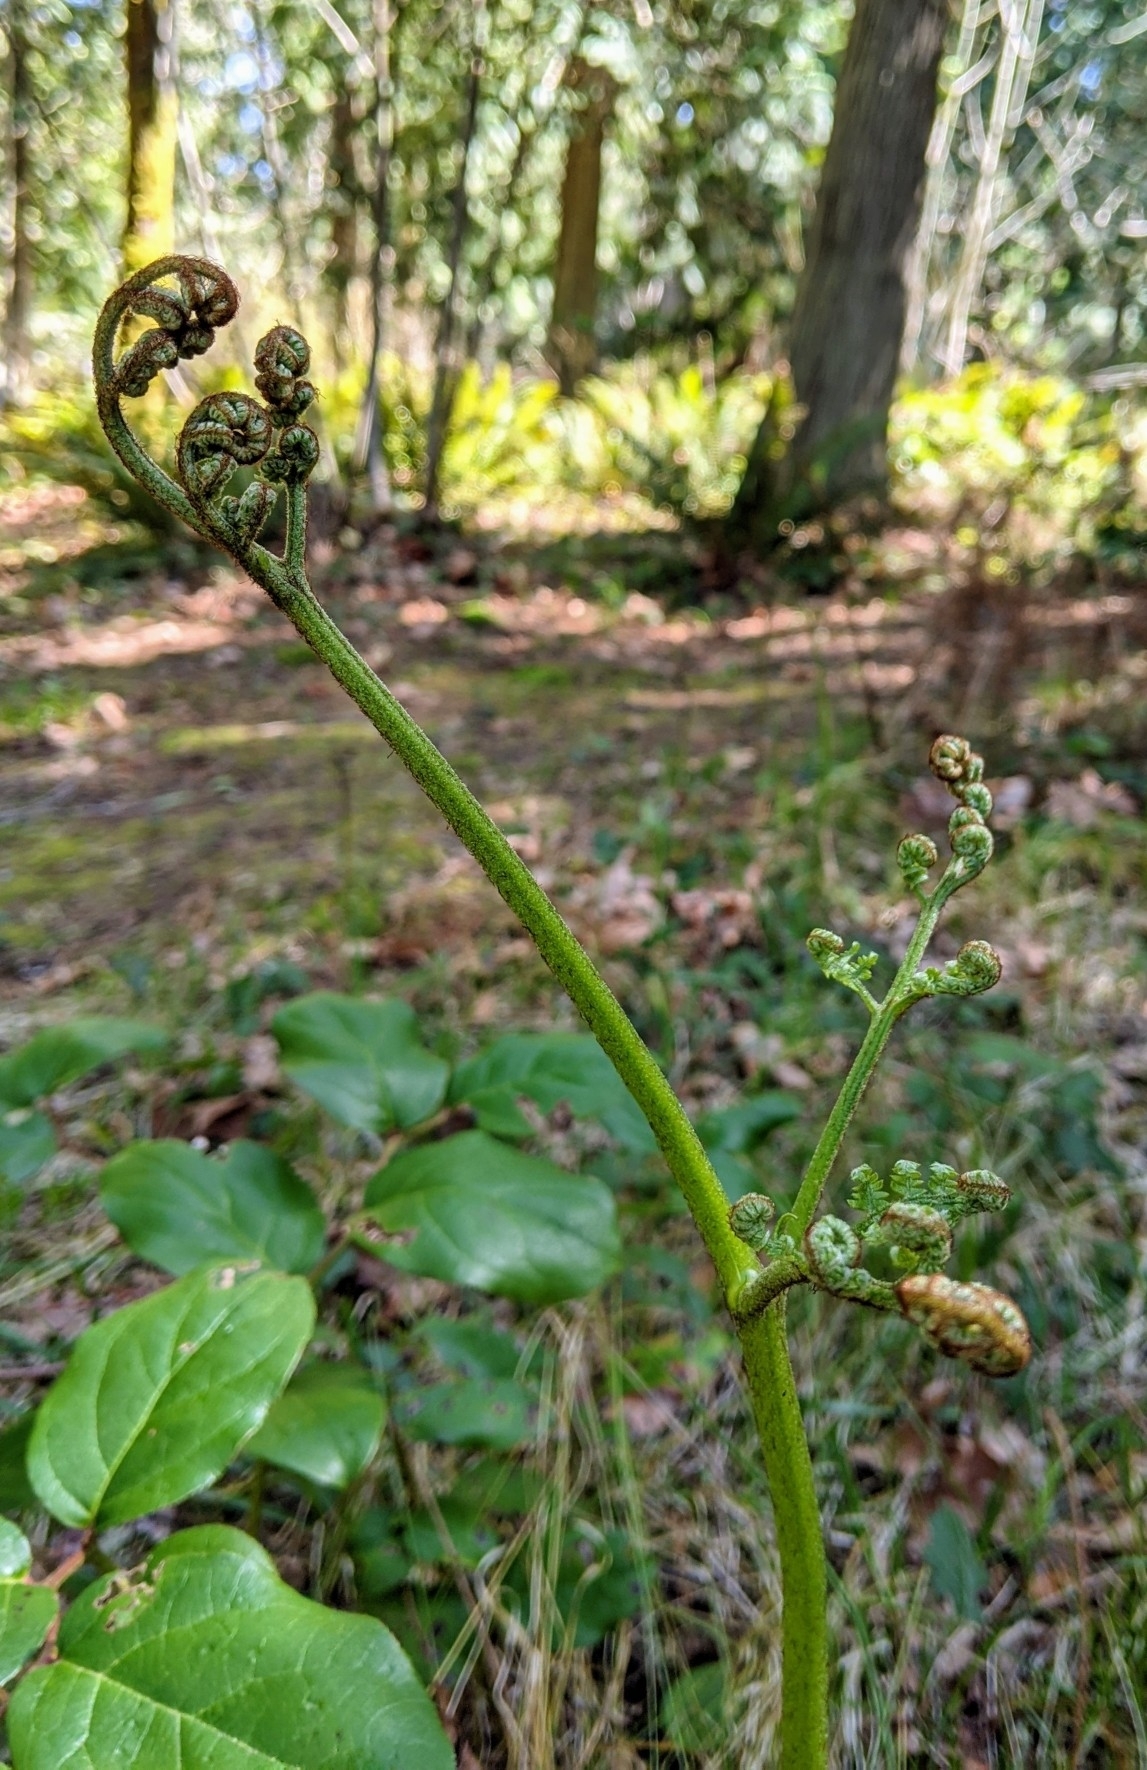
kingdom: Plantae
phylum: Tracheophyta
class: Polypodiopsida
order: Polypodiales
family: Dennstaedtiaceae
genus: Pteridium
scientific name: Pteridium aquilinum
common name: Bracken
